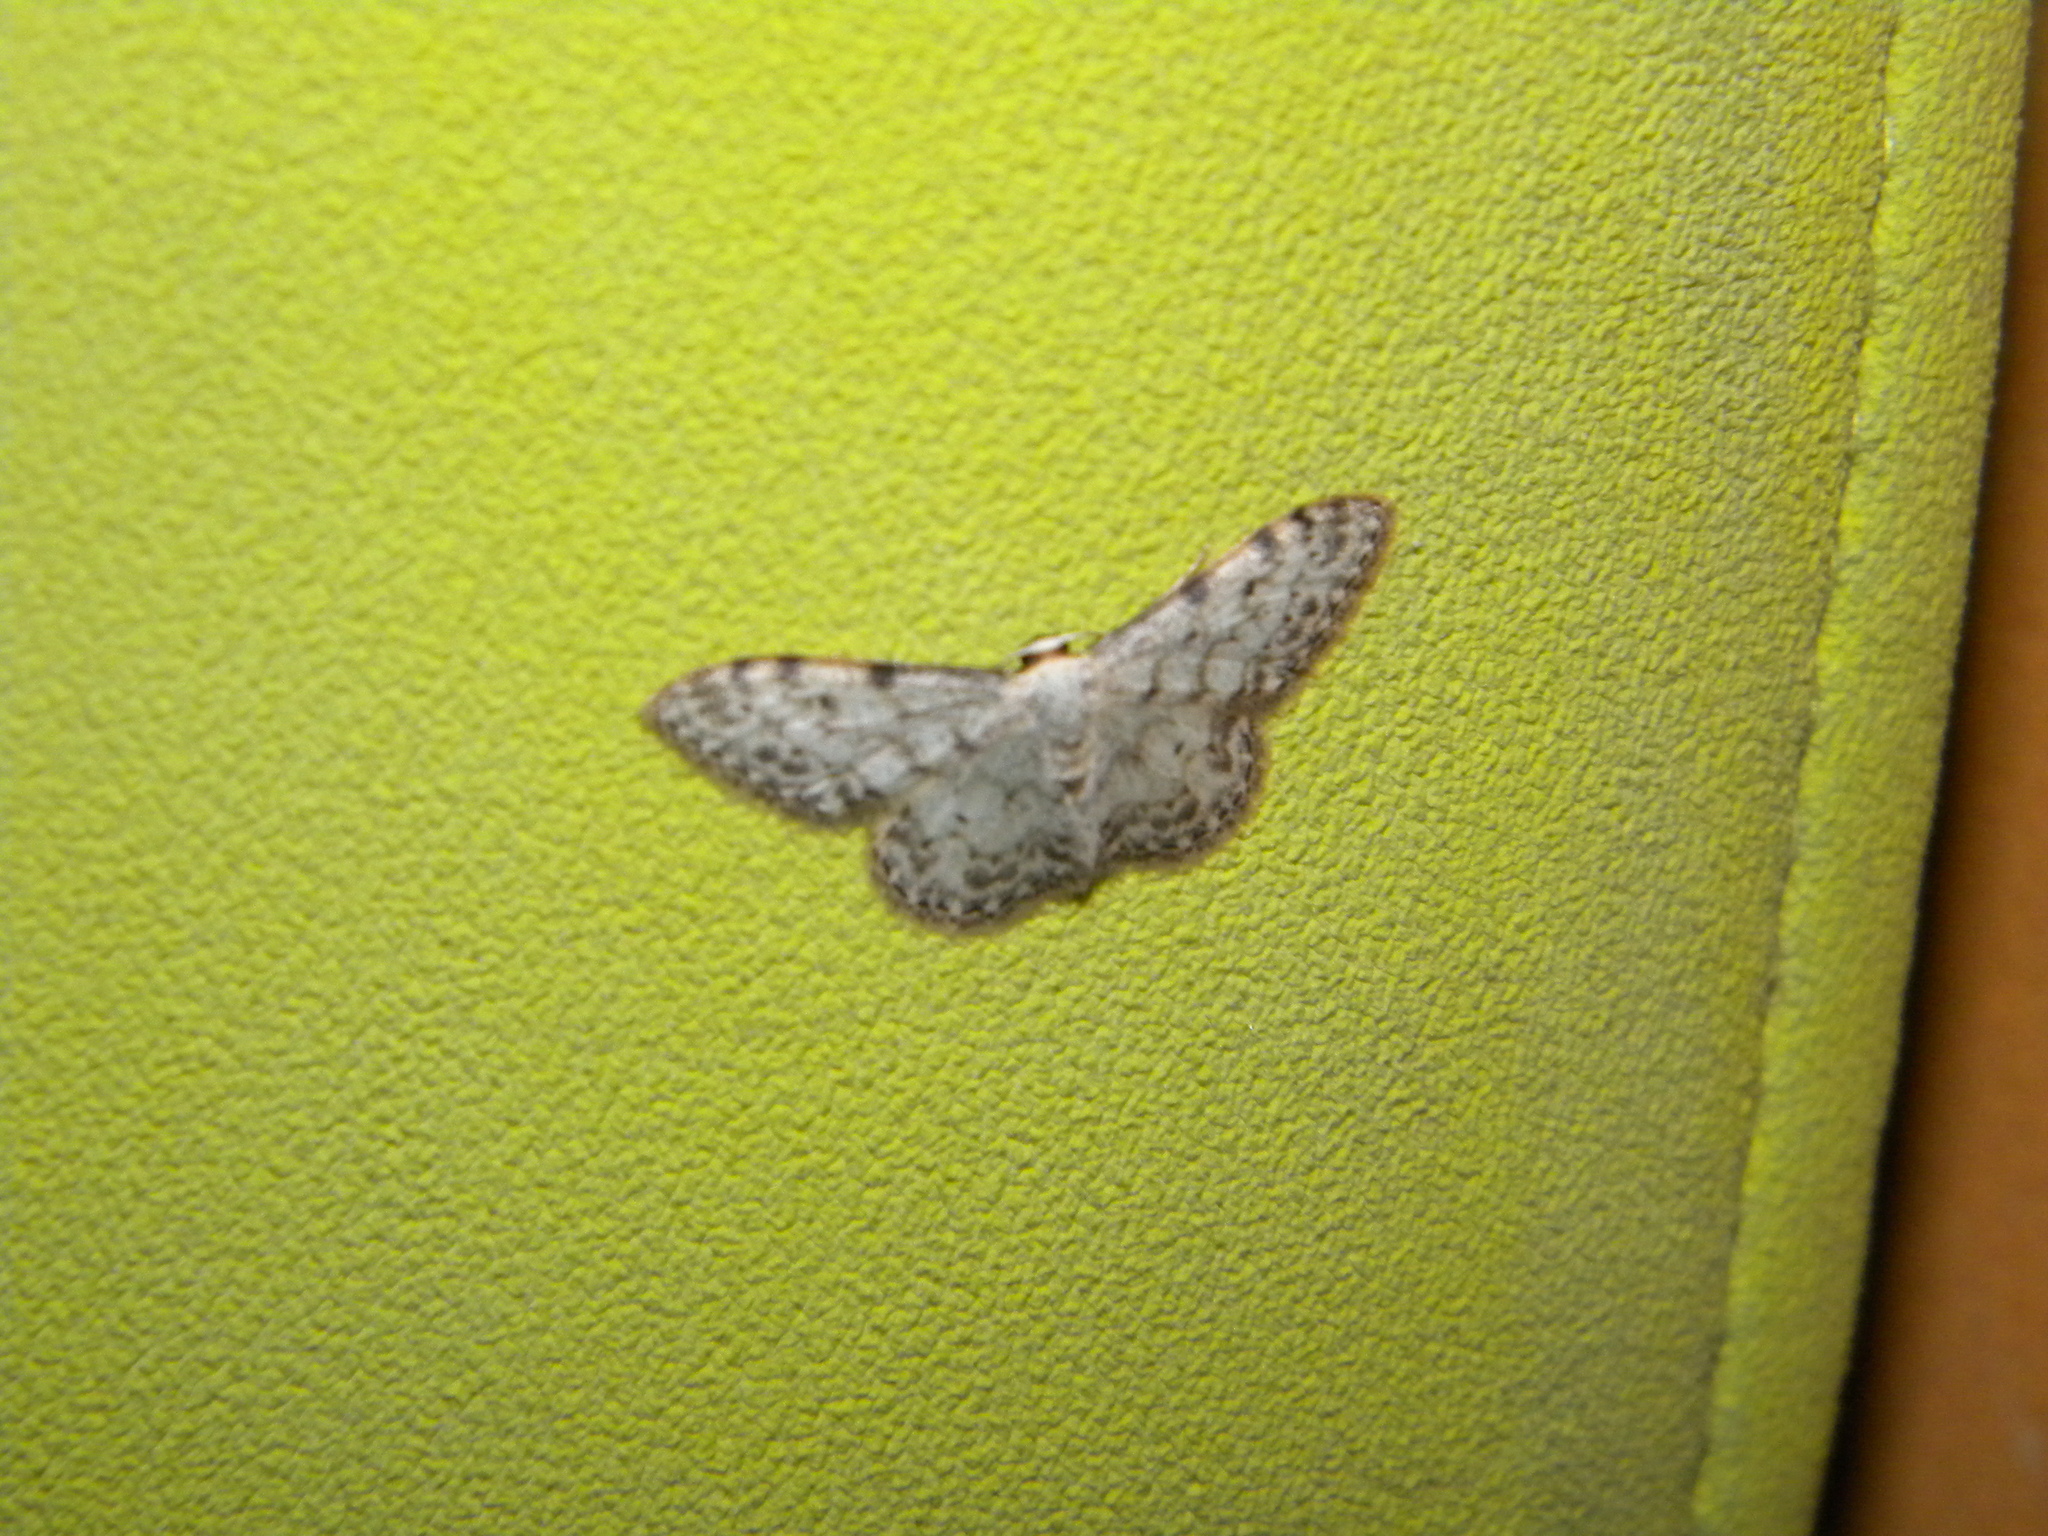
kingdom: Animalia
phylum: Arthropoda
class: Insecta
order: Lepidoptera
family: Geometridae
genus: Idaea
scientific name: Idaea camparia
